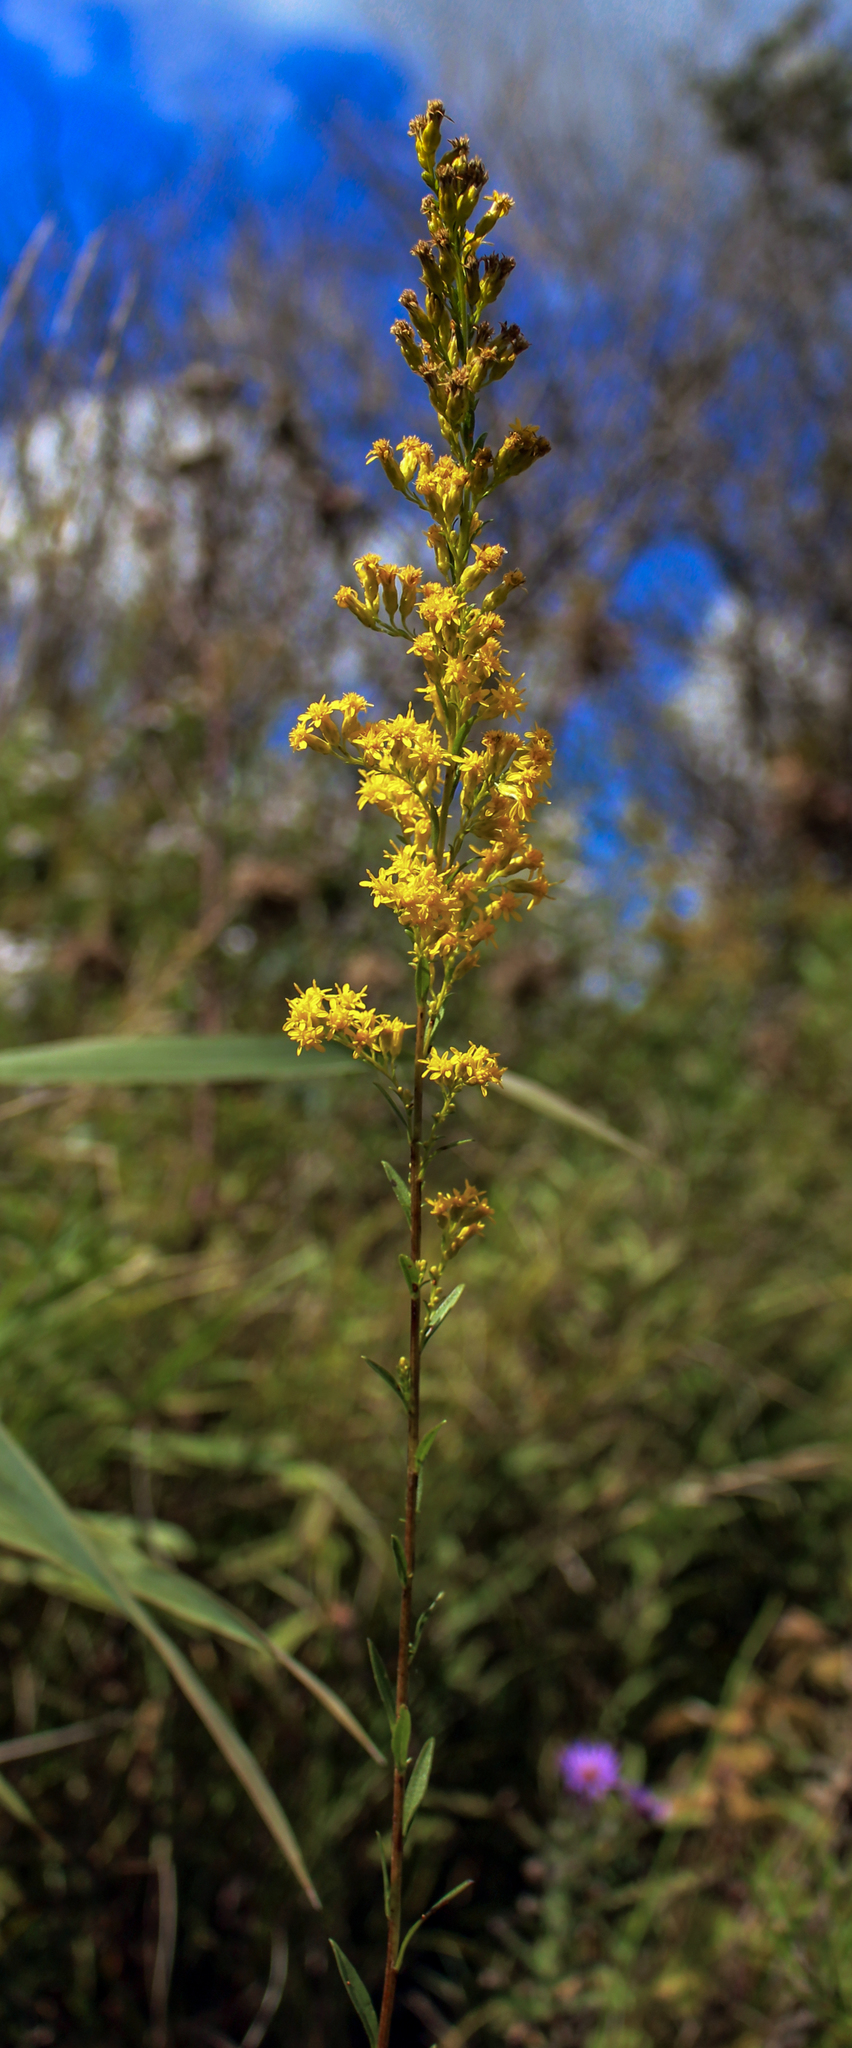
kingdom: Plantae
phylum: Tracheophyta
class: Magnoliopsida
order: Asterales
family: Asteraceae
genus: Solidago
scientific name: Solidago uliginosa
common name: Bog goldenrod
